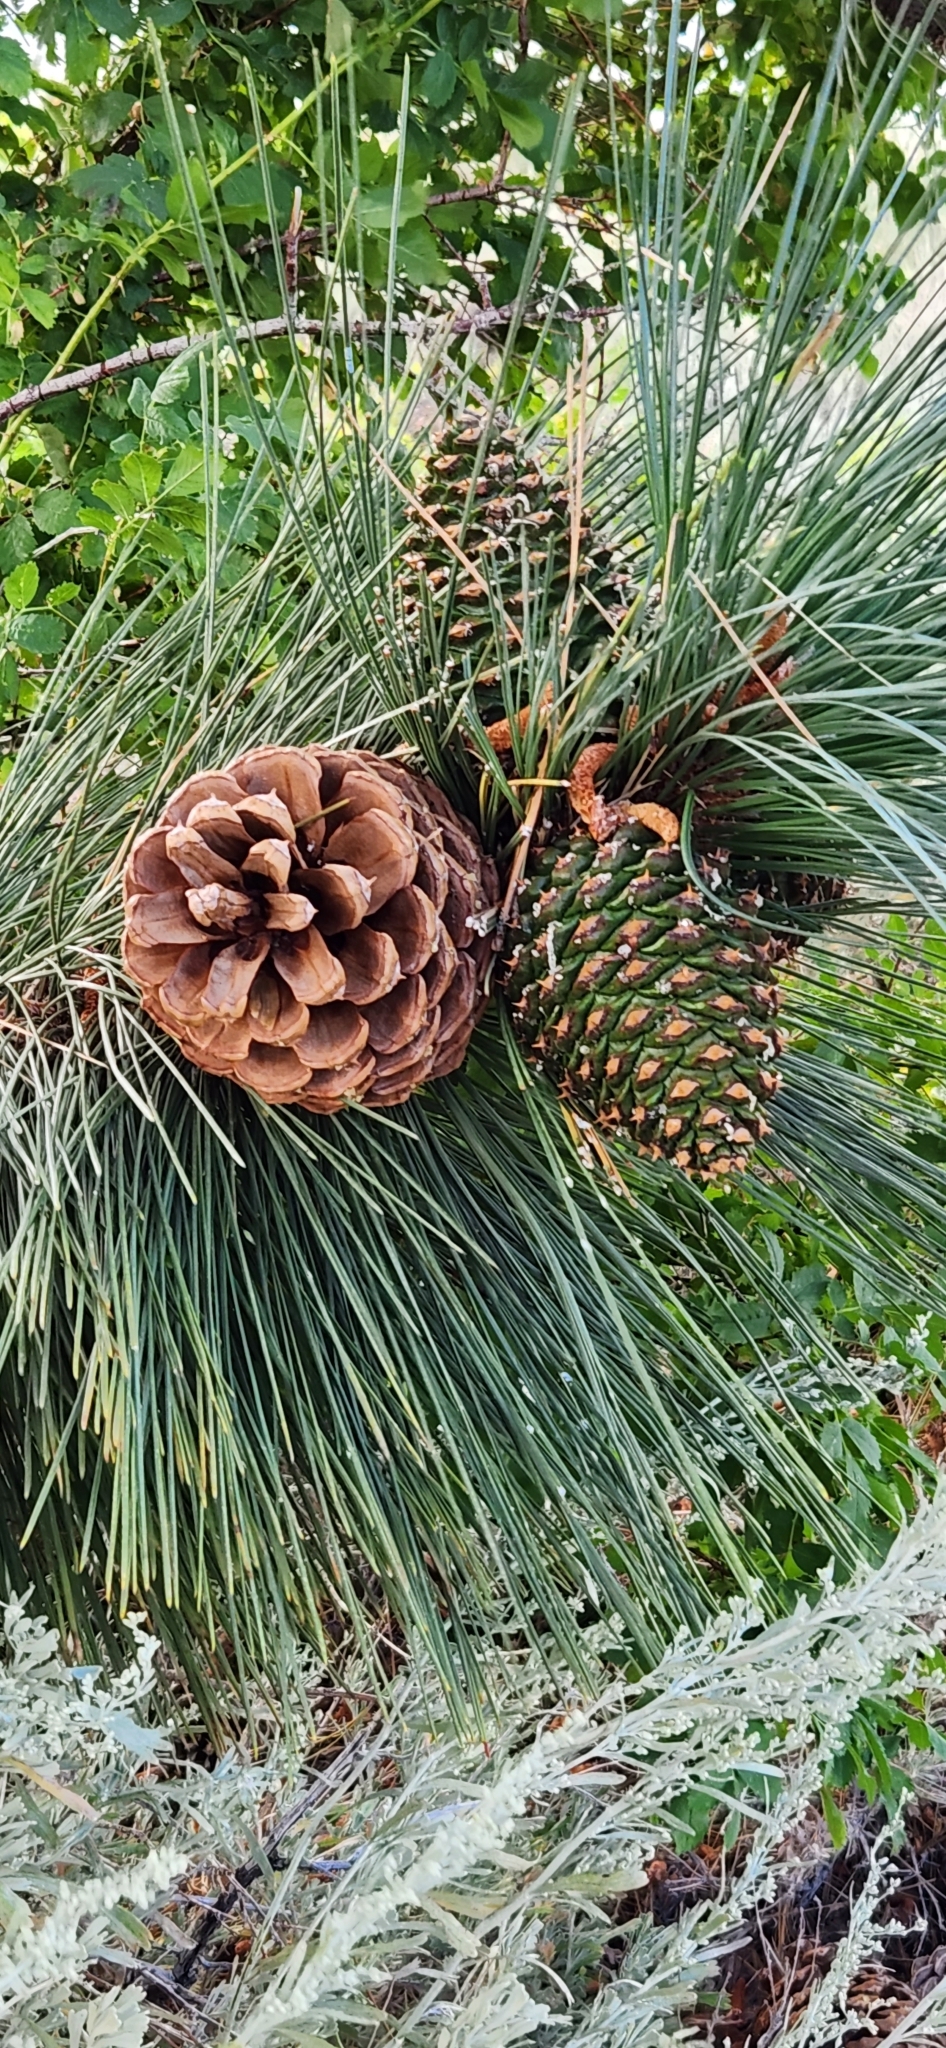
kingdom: Plantae
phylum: Tracheophyta
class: Pinopsida
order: Pinales
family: Pinaceae
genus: Pinus
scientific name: Pinus jeffreyi
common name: Jeffrey pine
